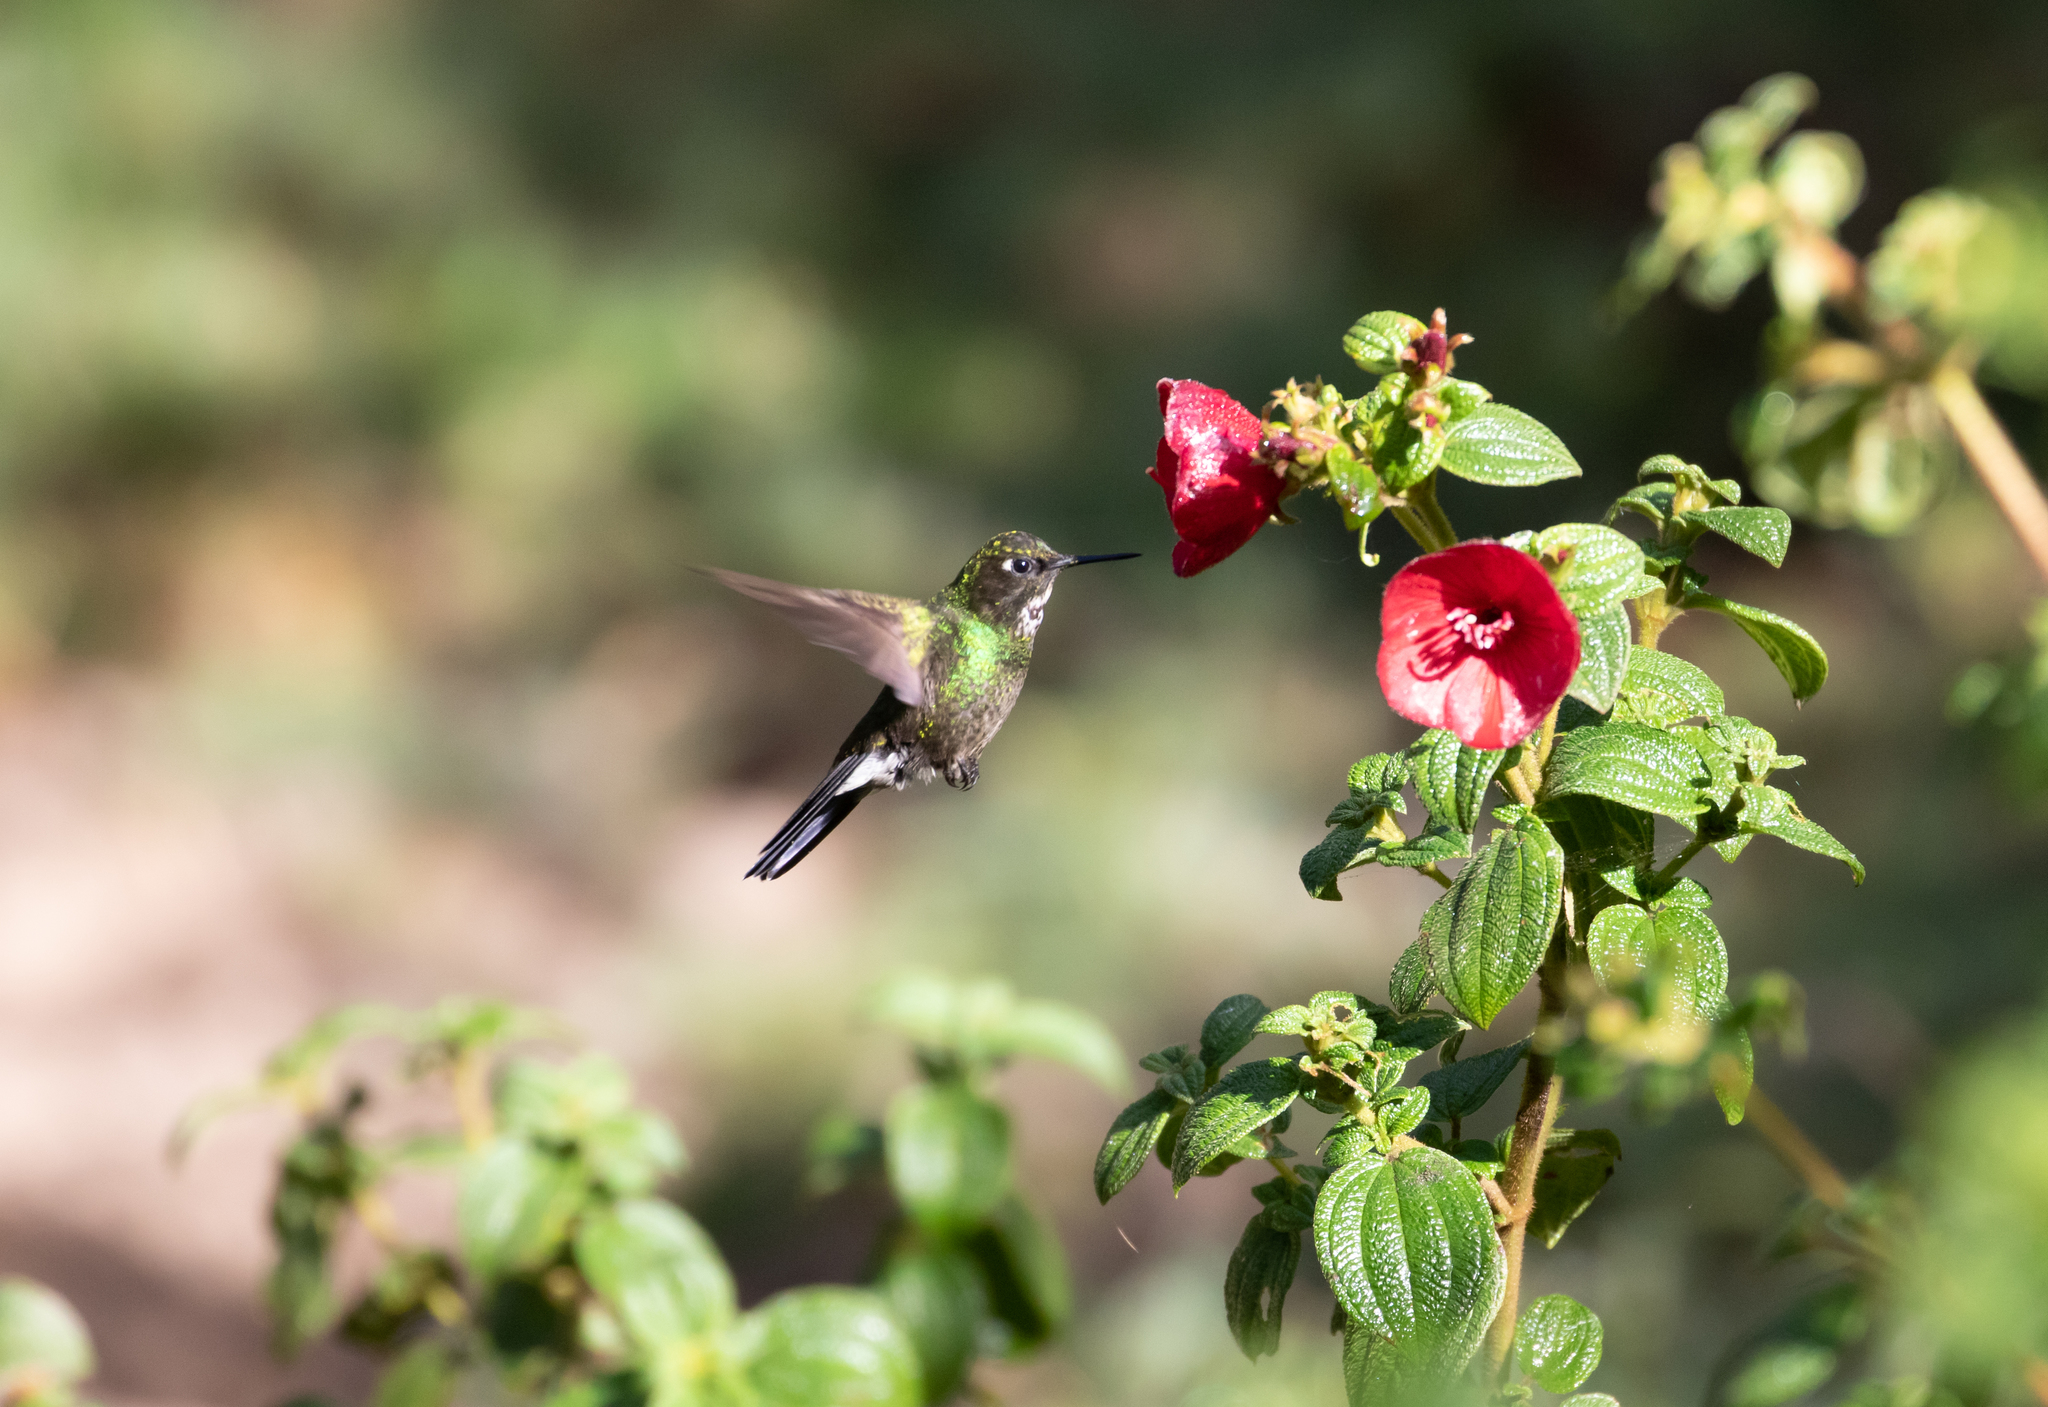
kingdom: Animalia
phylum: Chordata
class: Aves
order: Apodiformes
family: Trochilidae
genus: Heliangelus
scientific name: Heliangelus exortis
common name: Tourmaline sunangel
